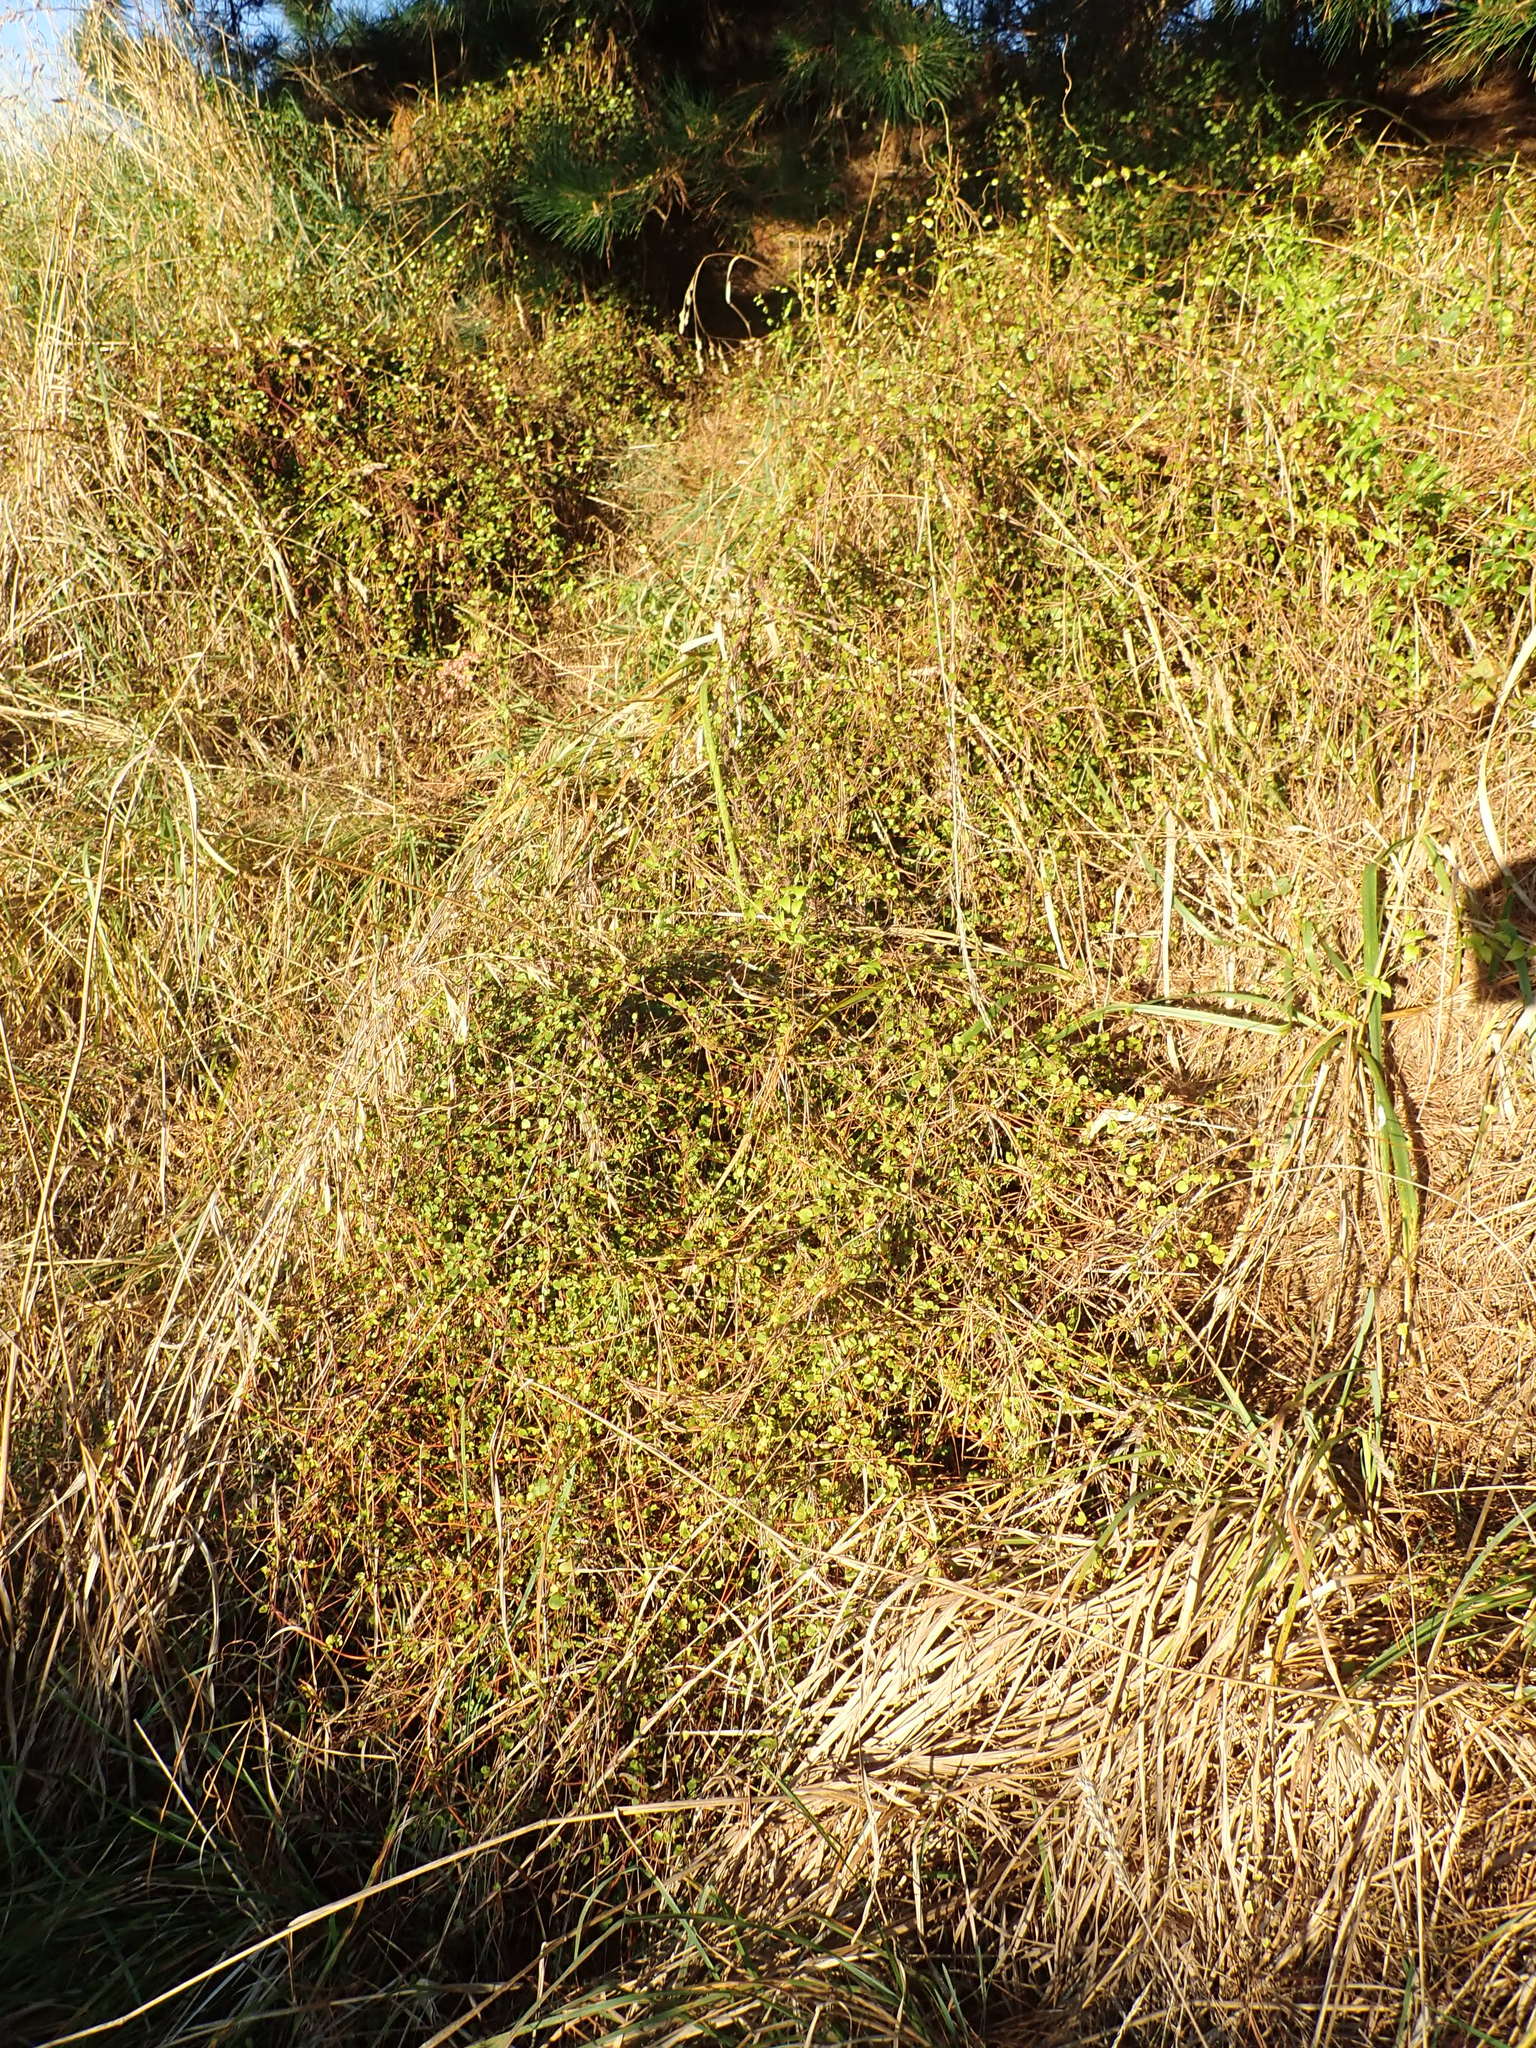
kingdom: Plantae
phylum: Tracheophyta
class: Magnoliopsida
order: Caryophyllales
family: Polygonaceae
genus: Muehlenbeckia
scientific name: Muehlenbeckia complexa
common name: Wireplant
